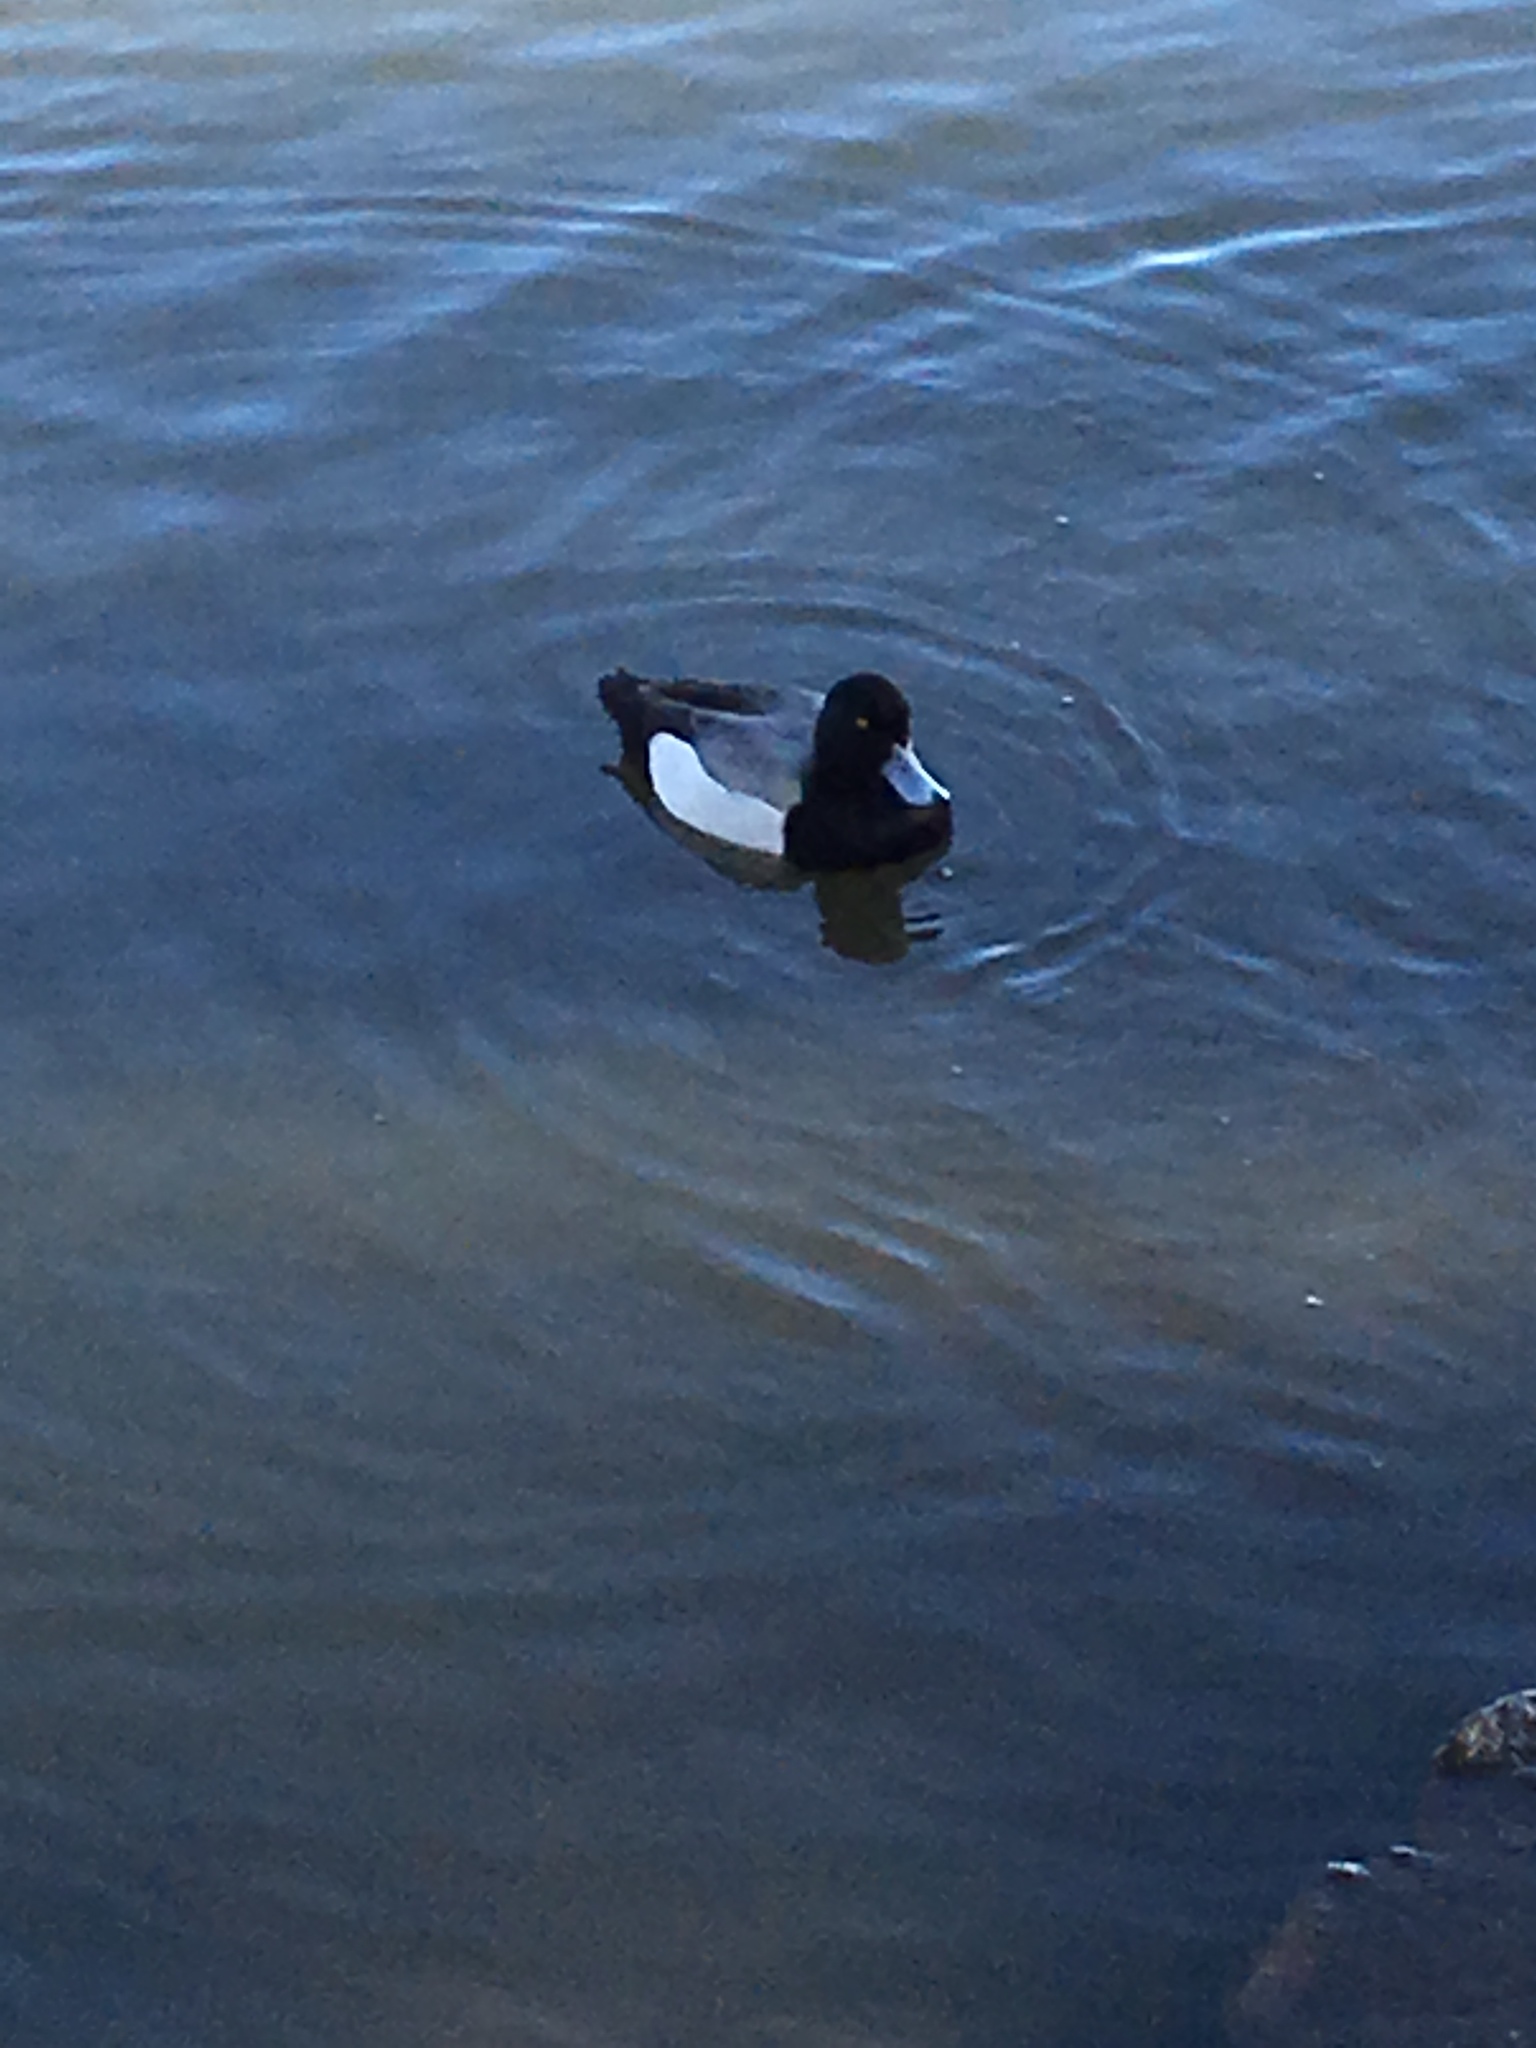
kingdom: Animalia
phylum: Chordata
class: Aves
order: Anseriformes
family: Anatidae
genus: Aythya
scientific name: Aythya affinis
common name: Lesser scaup
